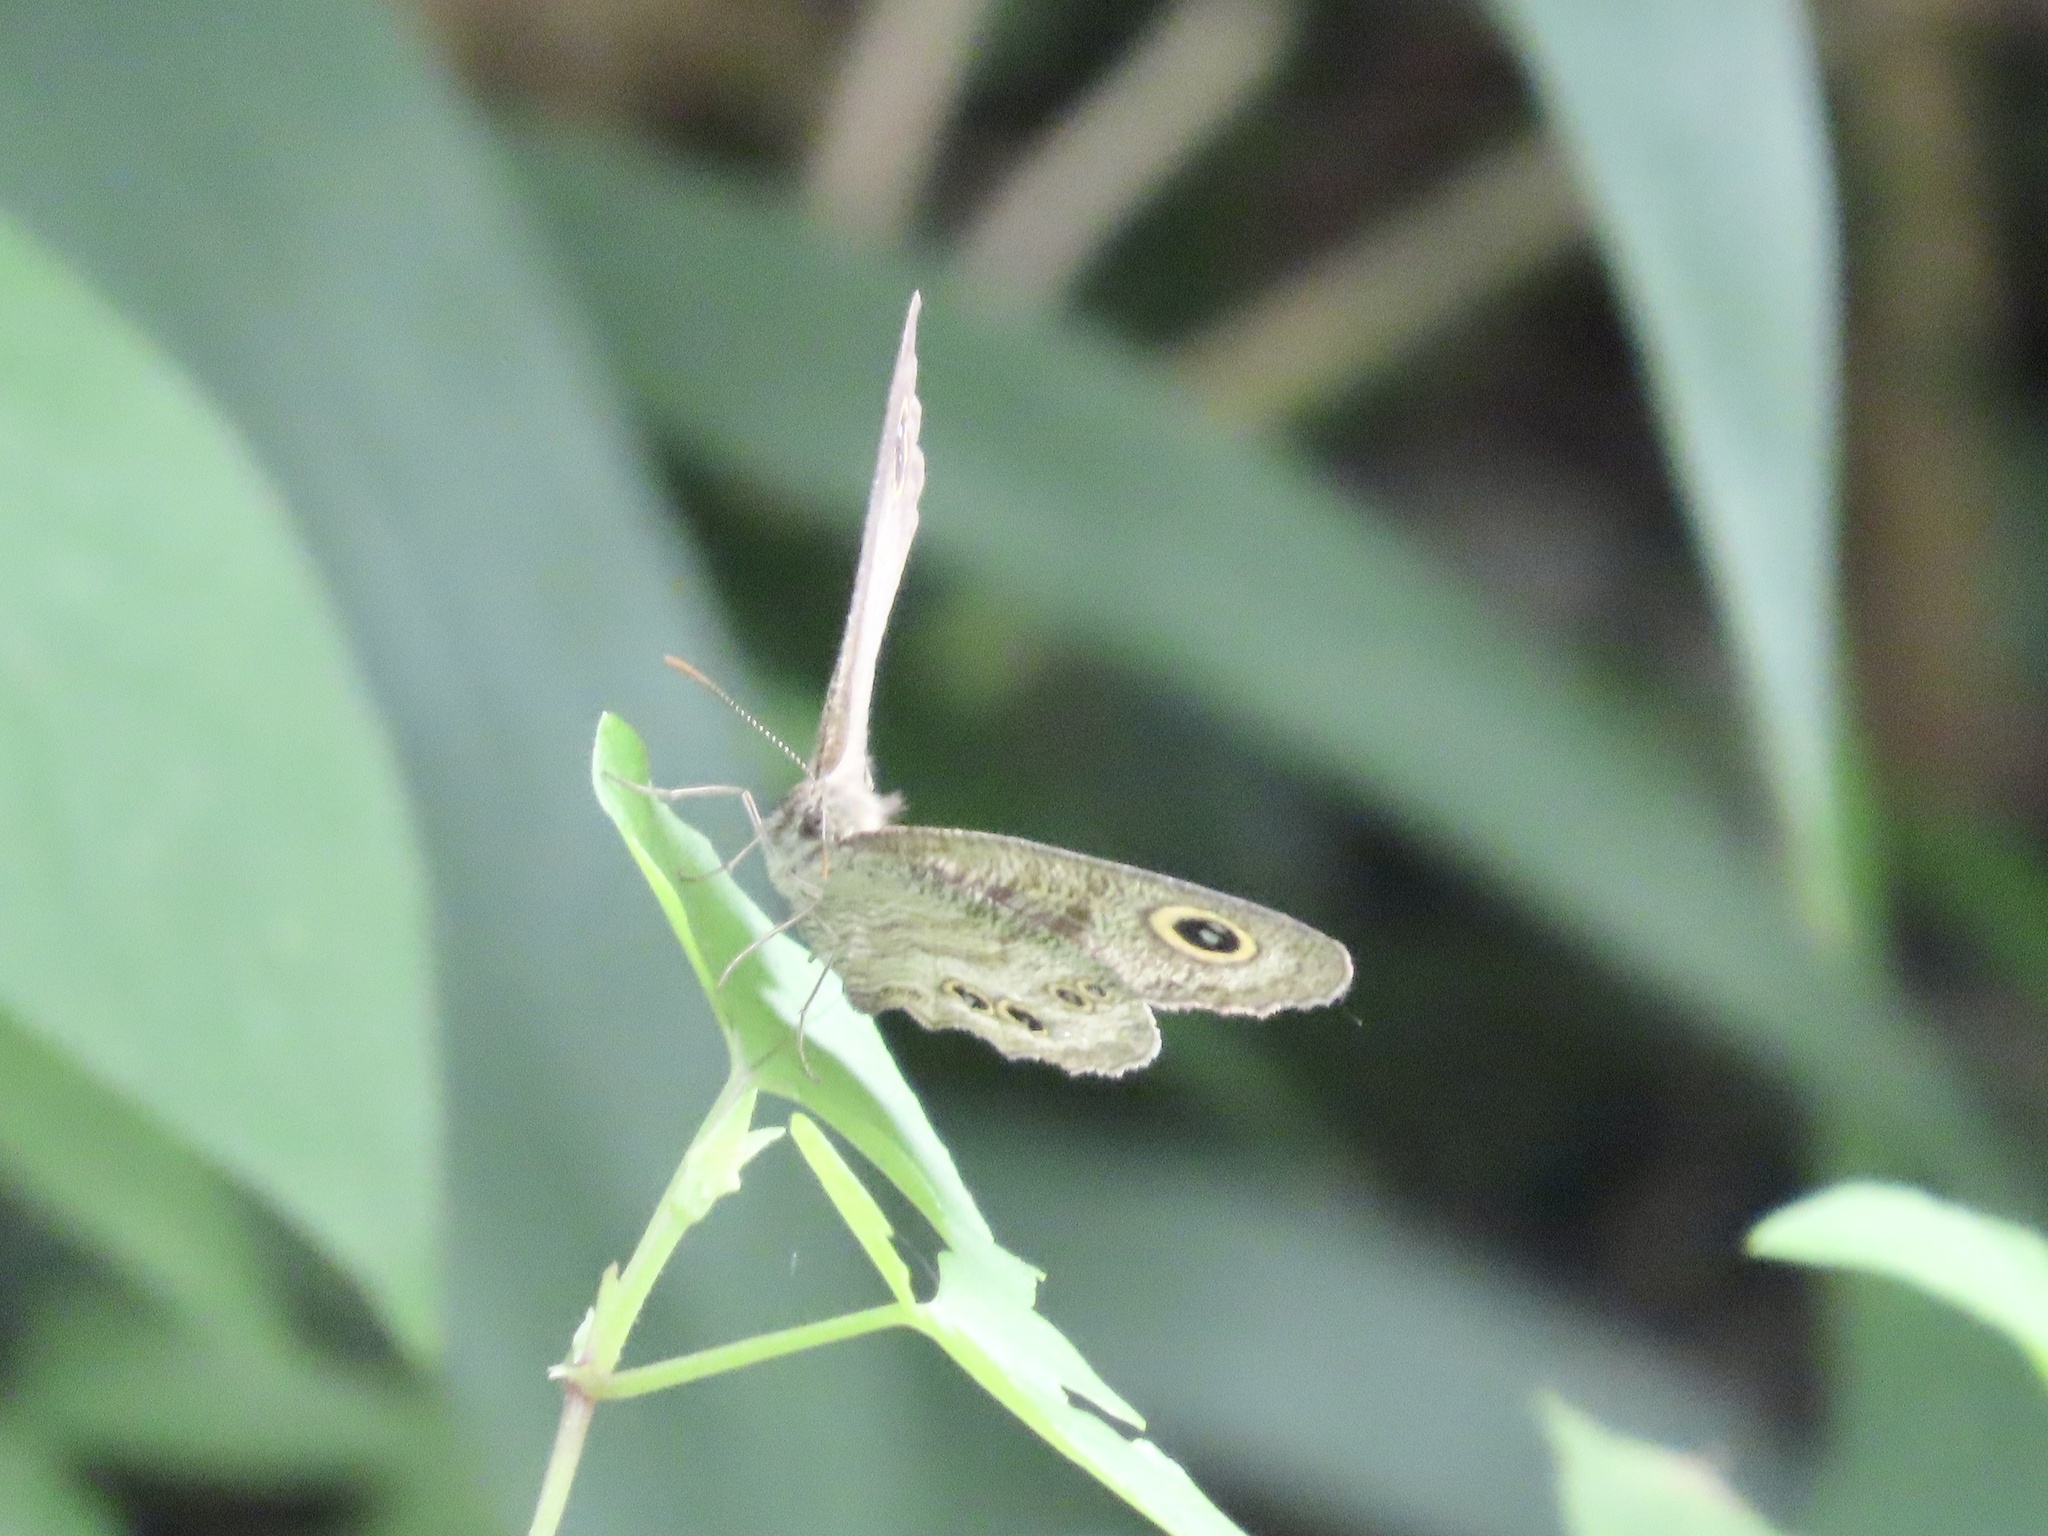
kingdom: Animalia
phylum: Arthropoda
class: Insecta
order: Lepidoptera
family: Nymphalidae
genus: Ypthima
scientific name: Ypthima baldus
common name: Common five-ring
